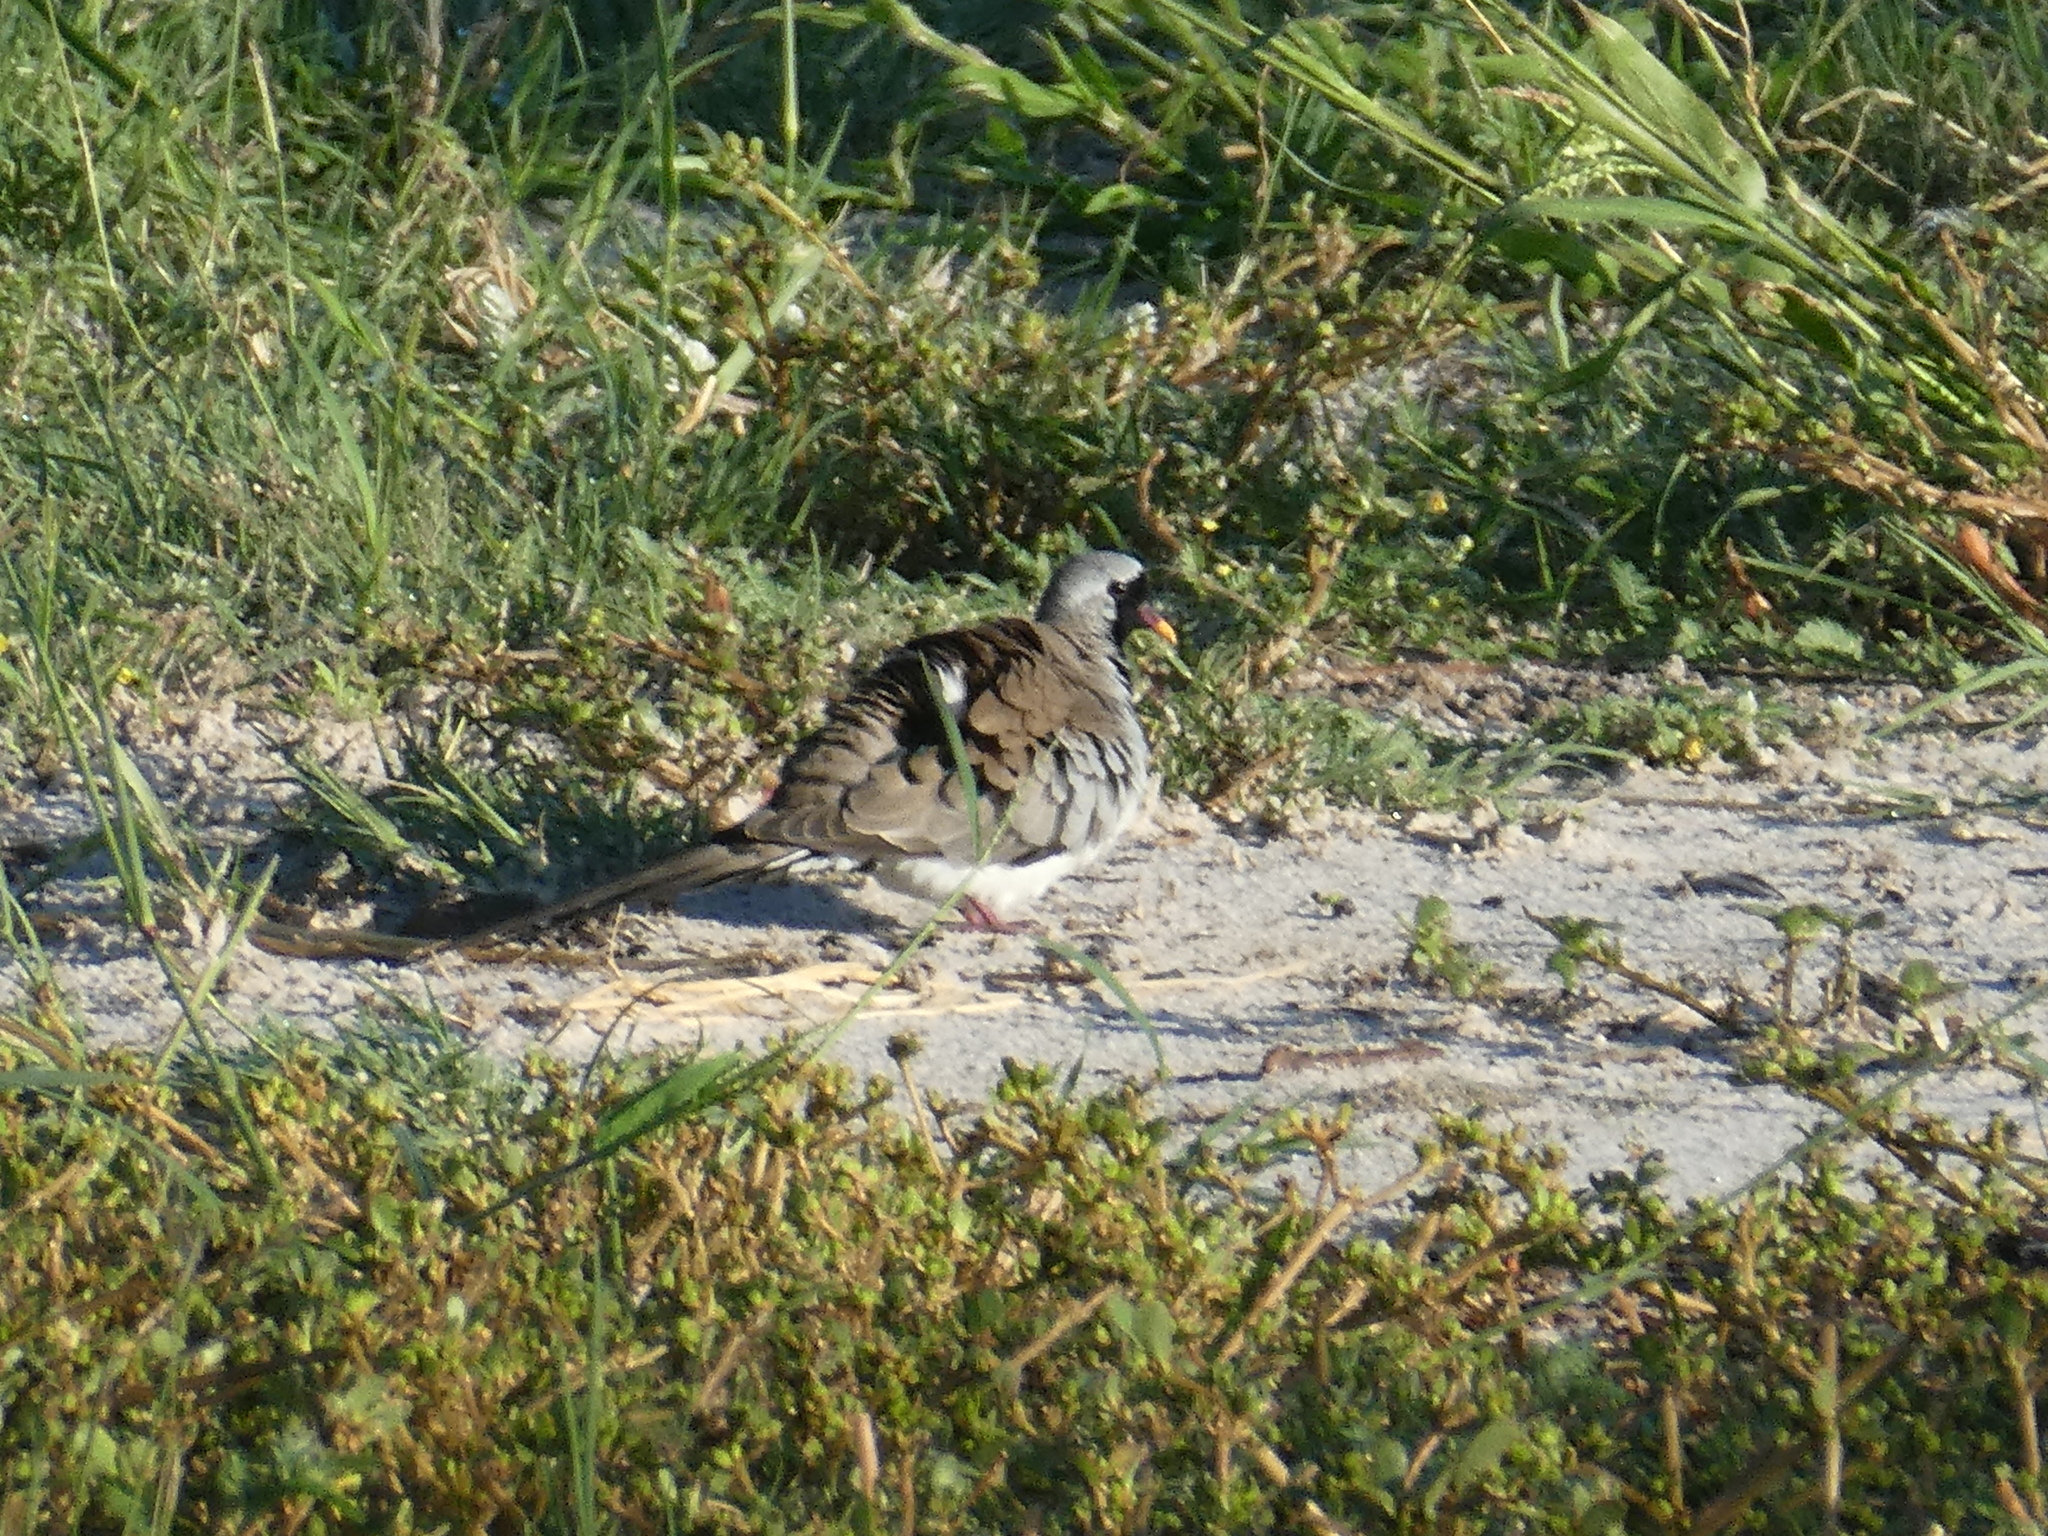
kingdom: Animalia
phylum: Chordata
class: Aves
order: Columbiformes
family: Columbidae
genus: Oena
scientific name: Oena capensis
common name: Namaqua dove
